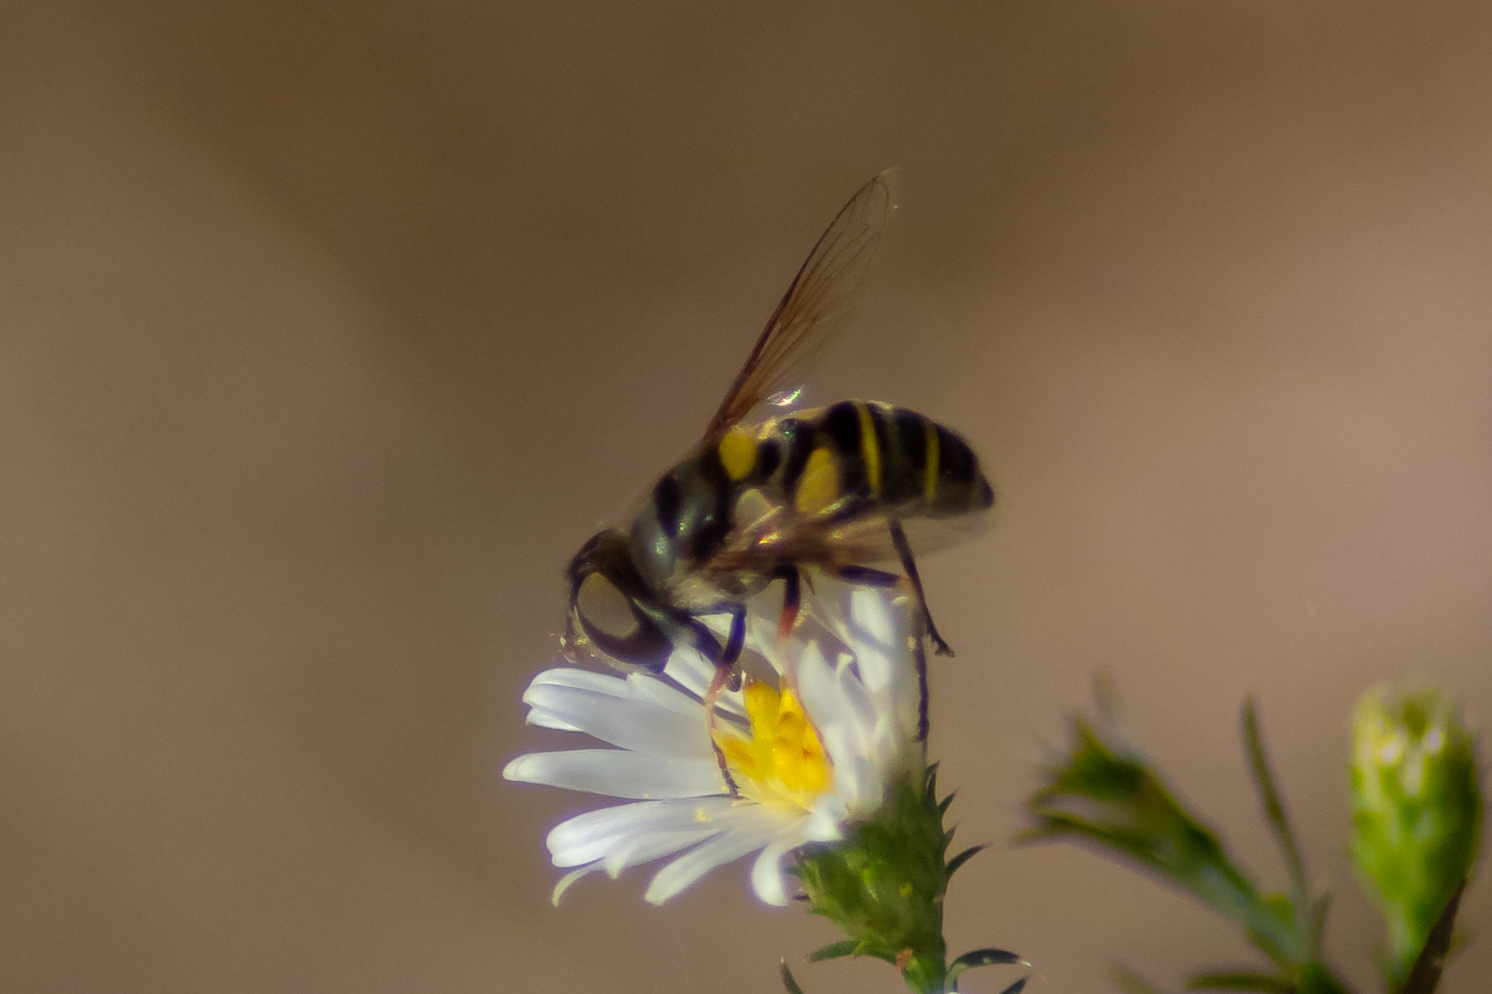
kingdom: Animalia
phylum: Arthropoda
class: Insecta
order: Diptera
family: Syrphidae
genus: Eristalis
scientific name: Eristalis transversa
